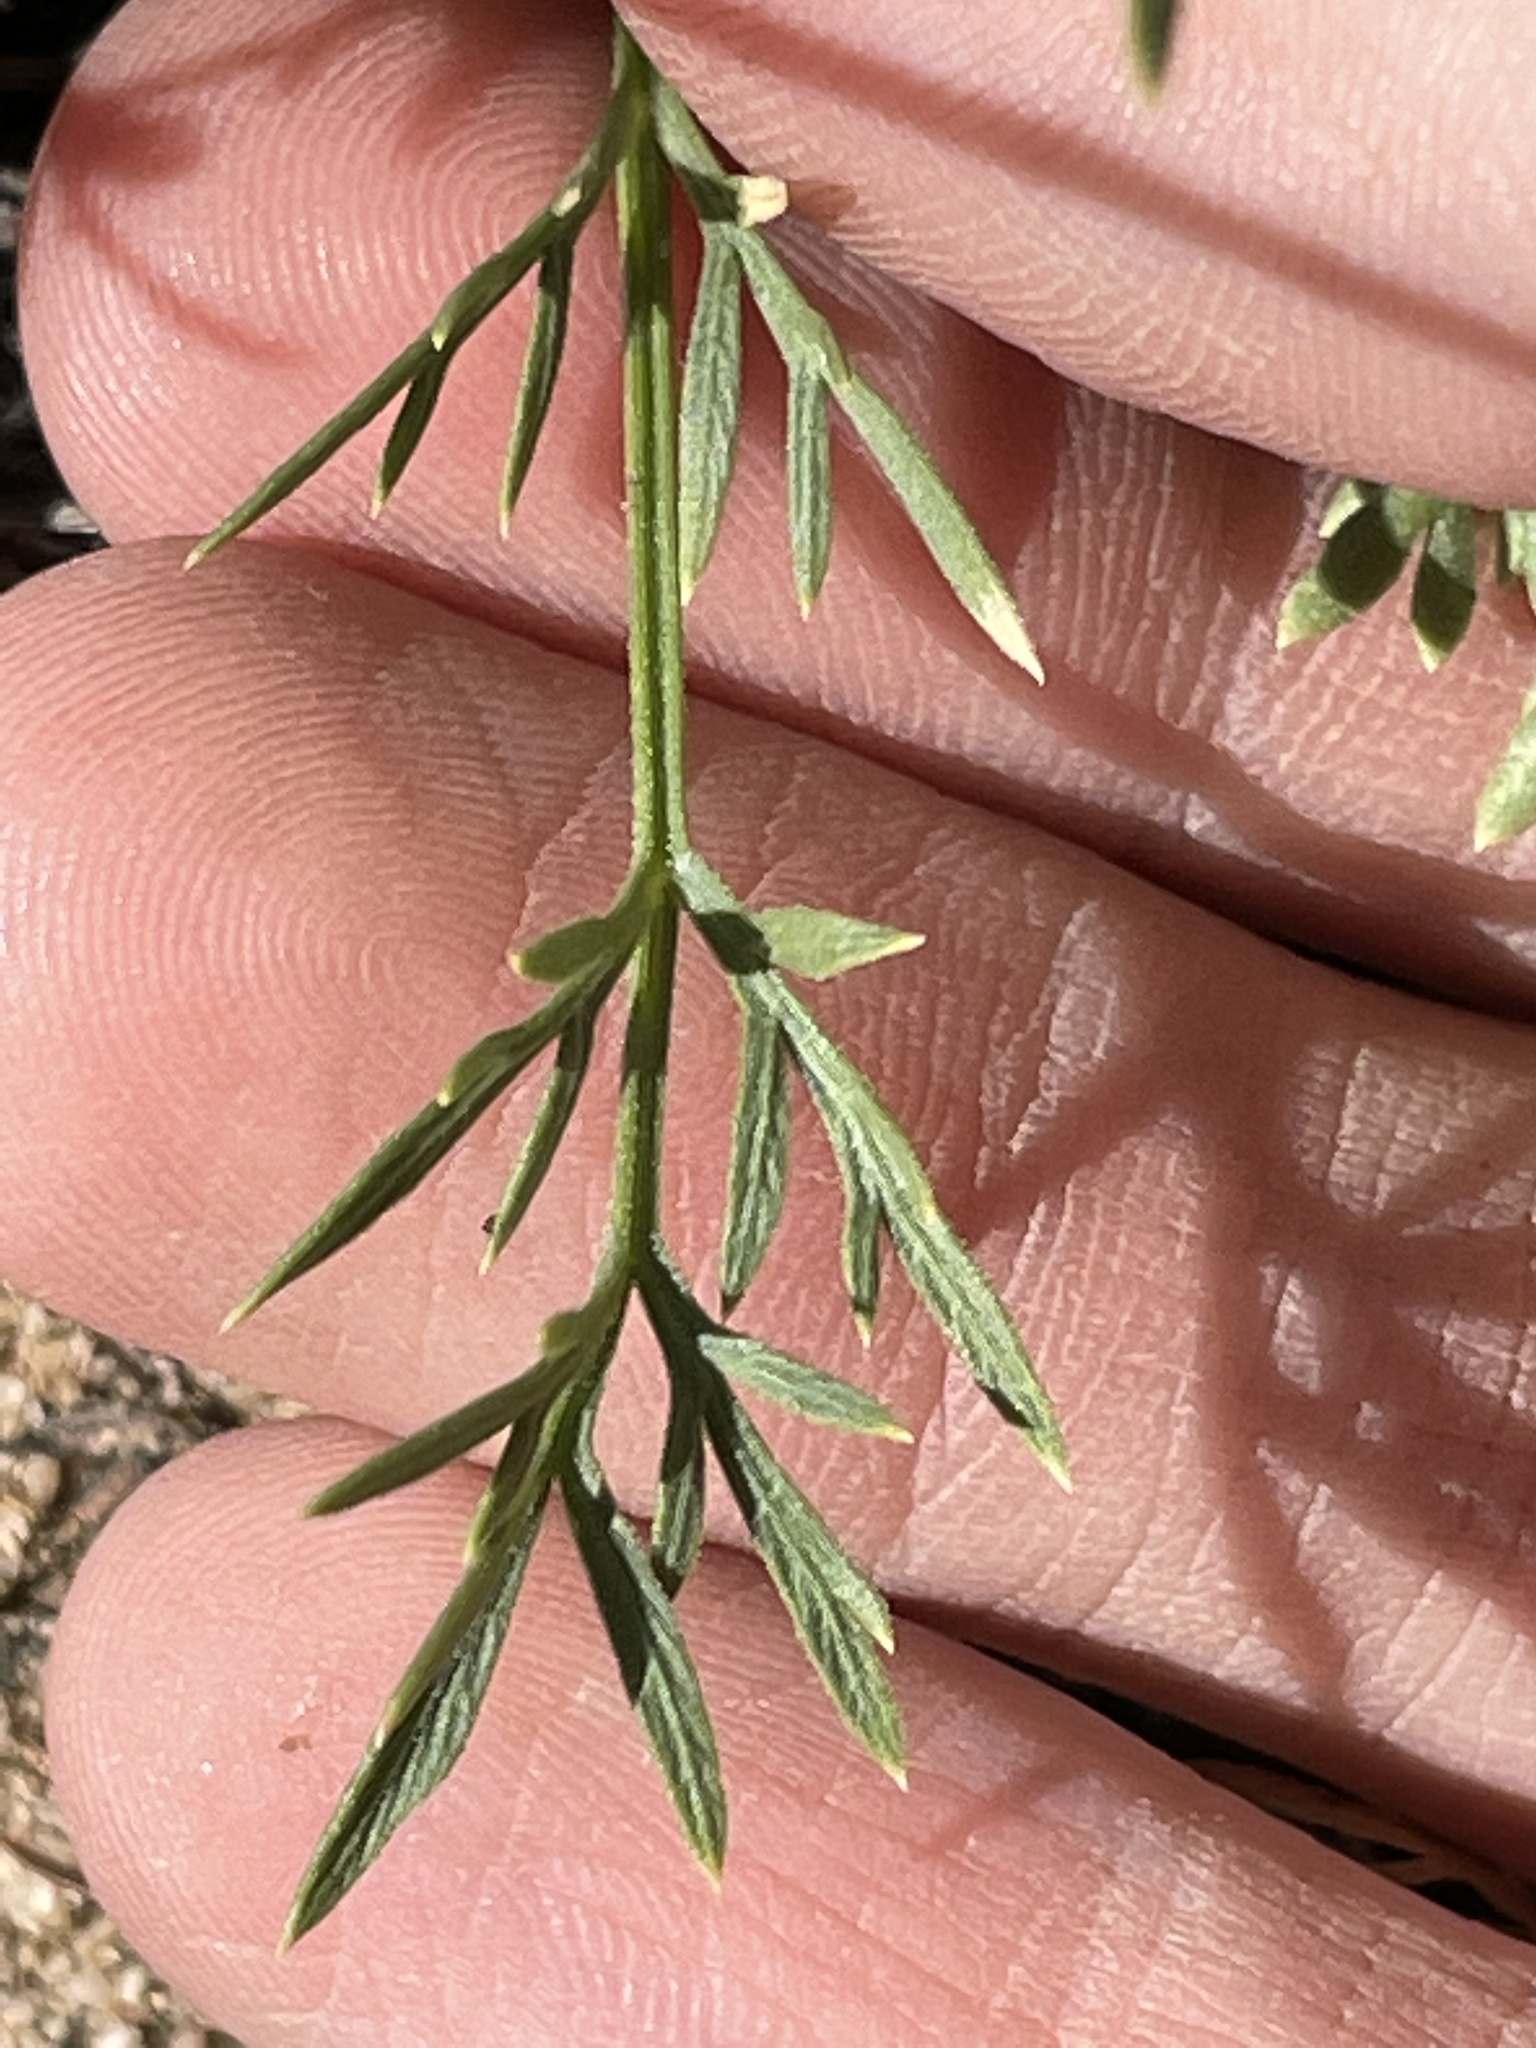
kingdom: Plantae
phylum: Tracheophyta
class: Magnoliopsida
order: Apiales
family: Apiaceae
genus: Cymopterus
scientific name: Cymopterus sessiliflorus
